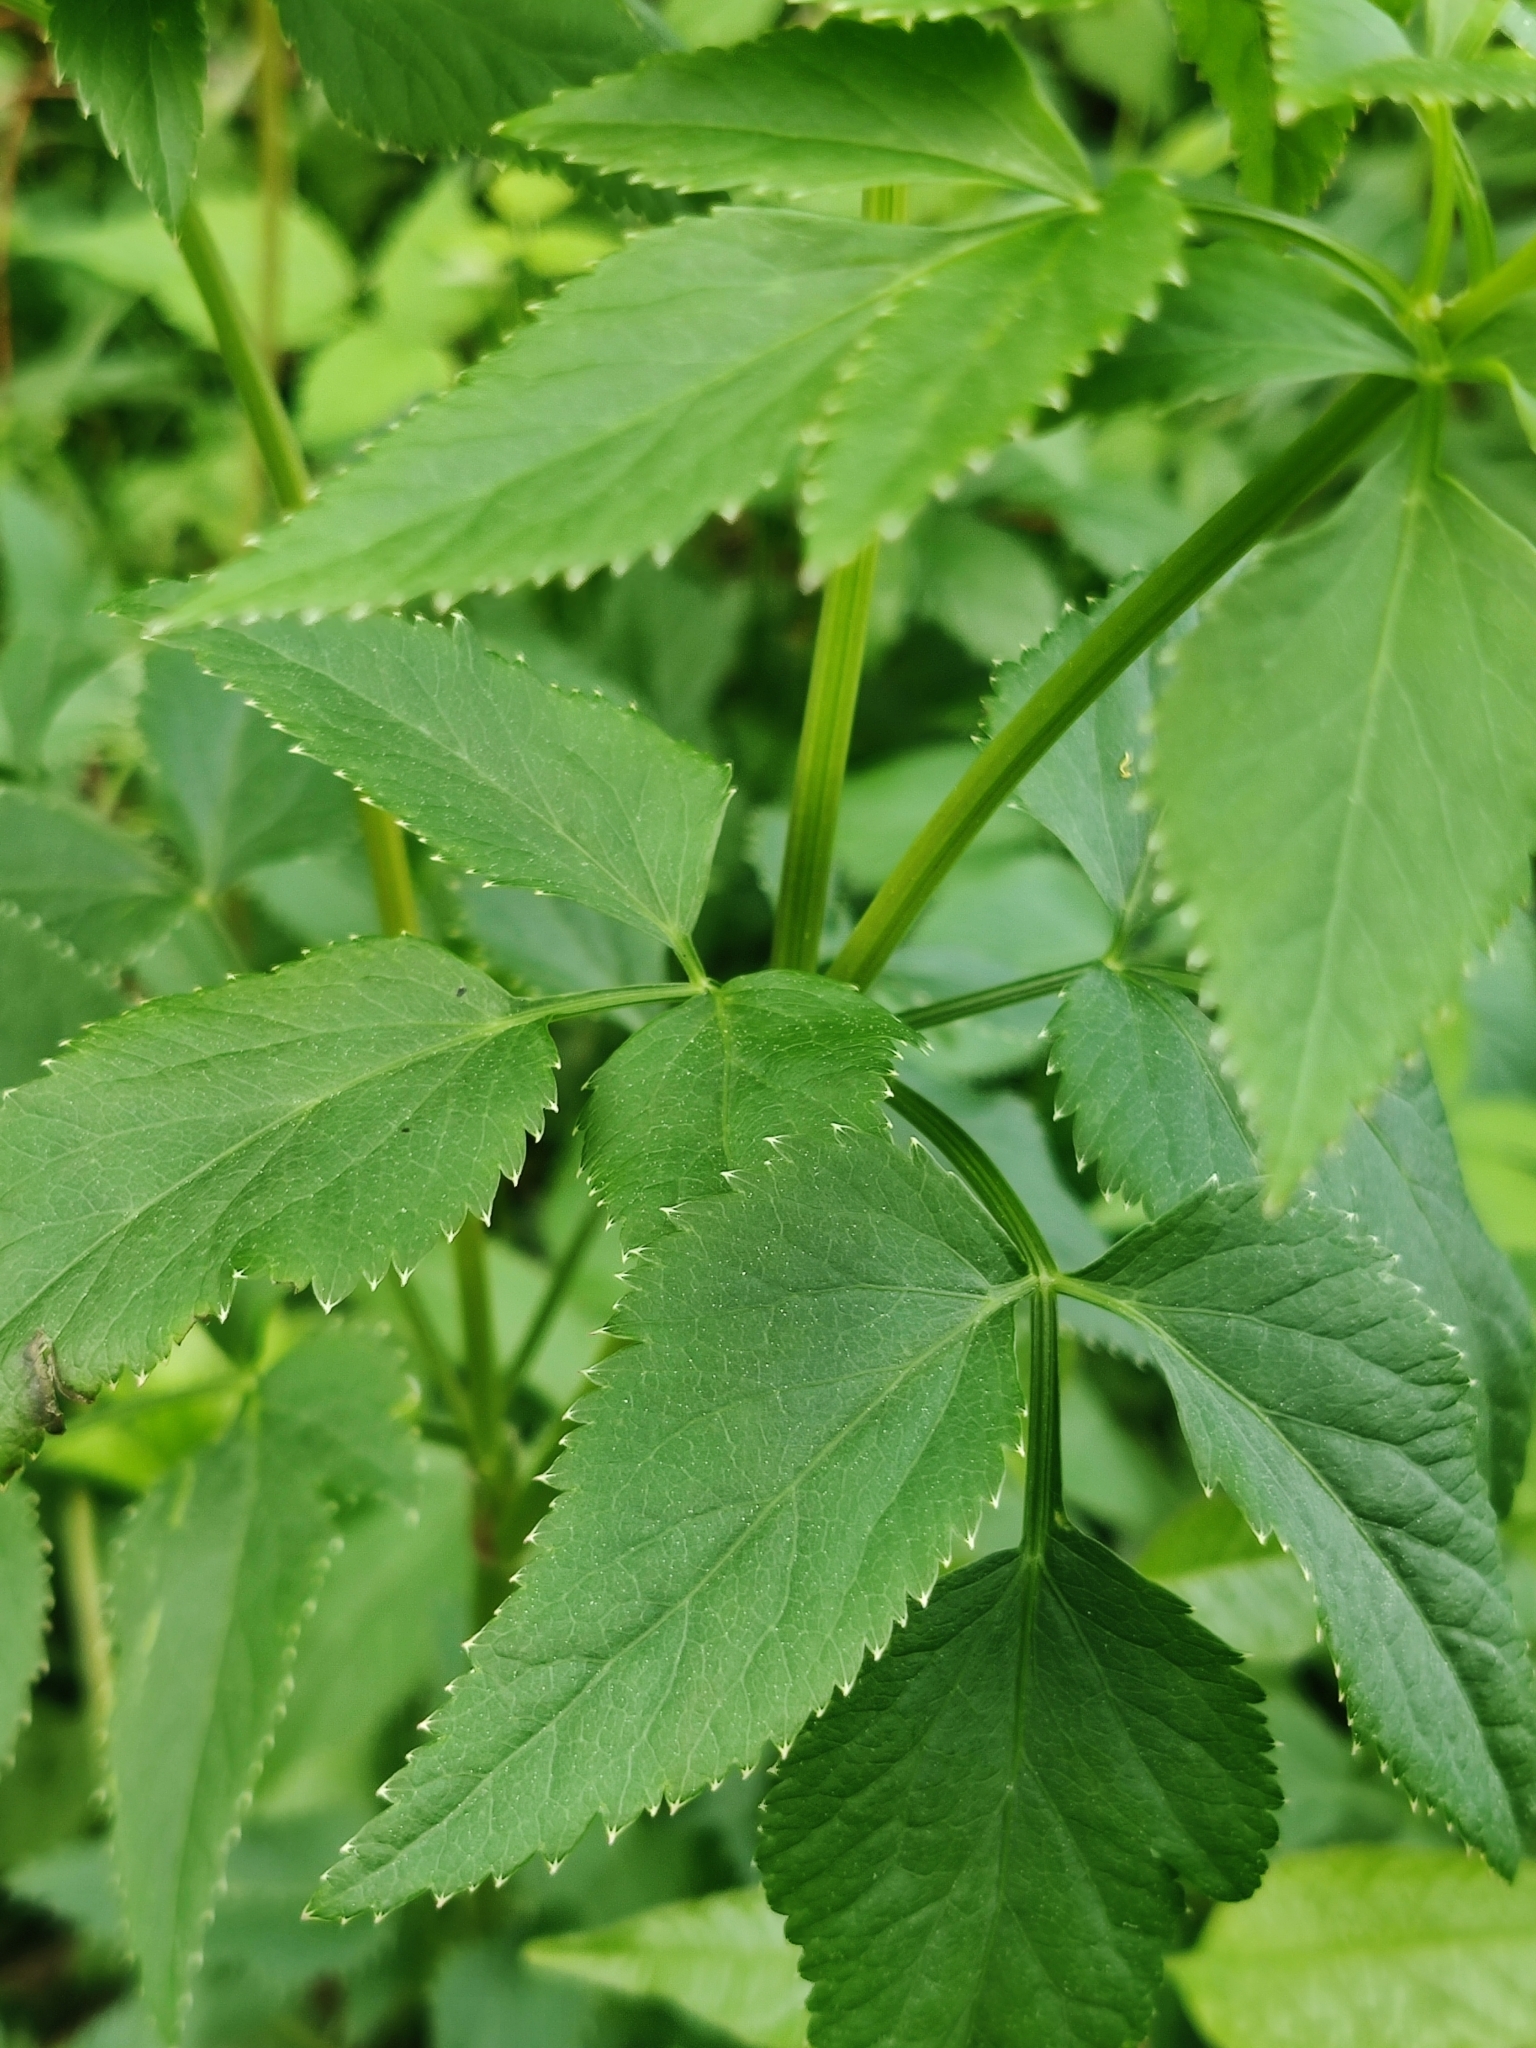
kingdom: Plantae
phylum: Tracheophyta
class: Magnoliopsida
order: Apiales
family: Apiaceae
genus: Zizia
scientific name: Zizia aurea
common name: Golden alexanders
